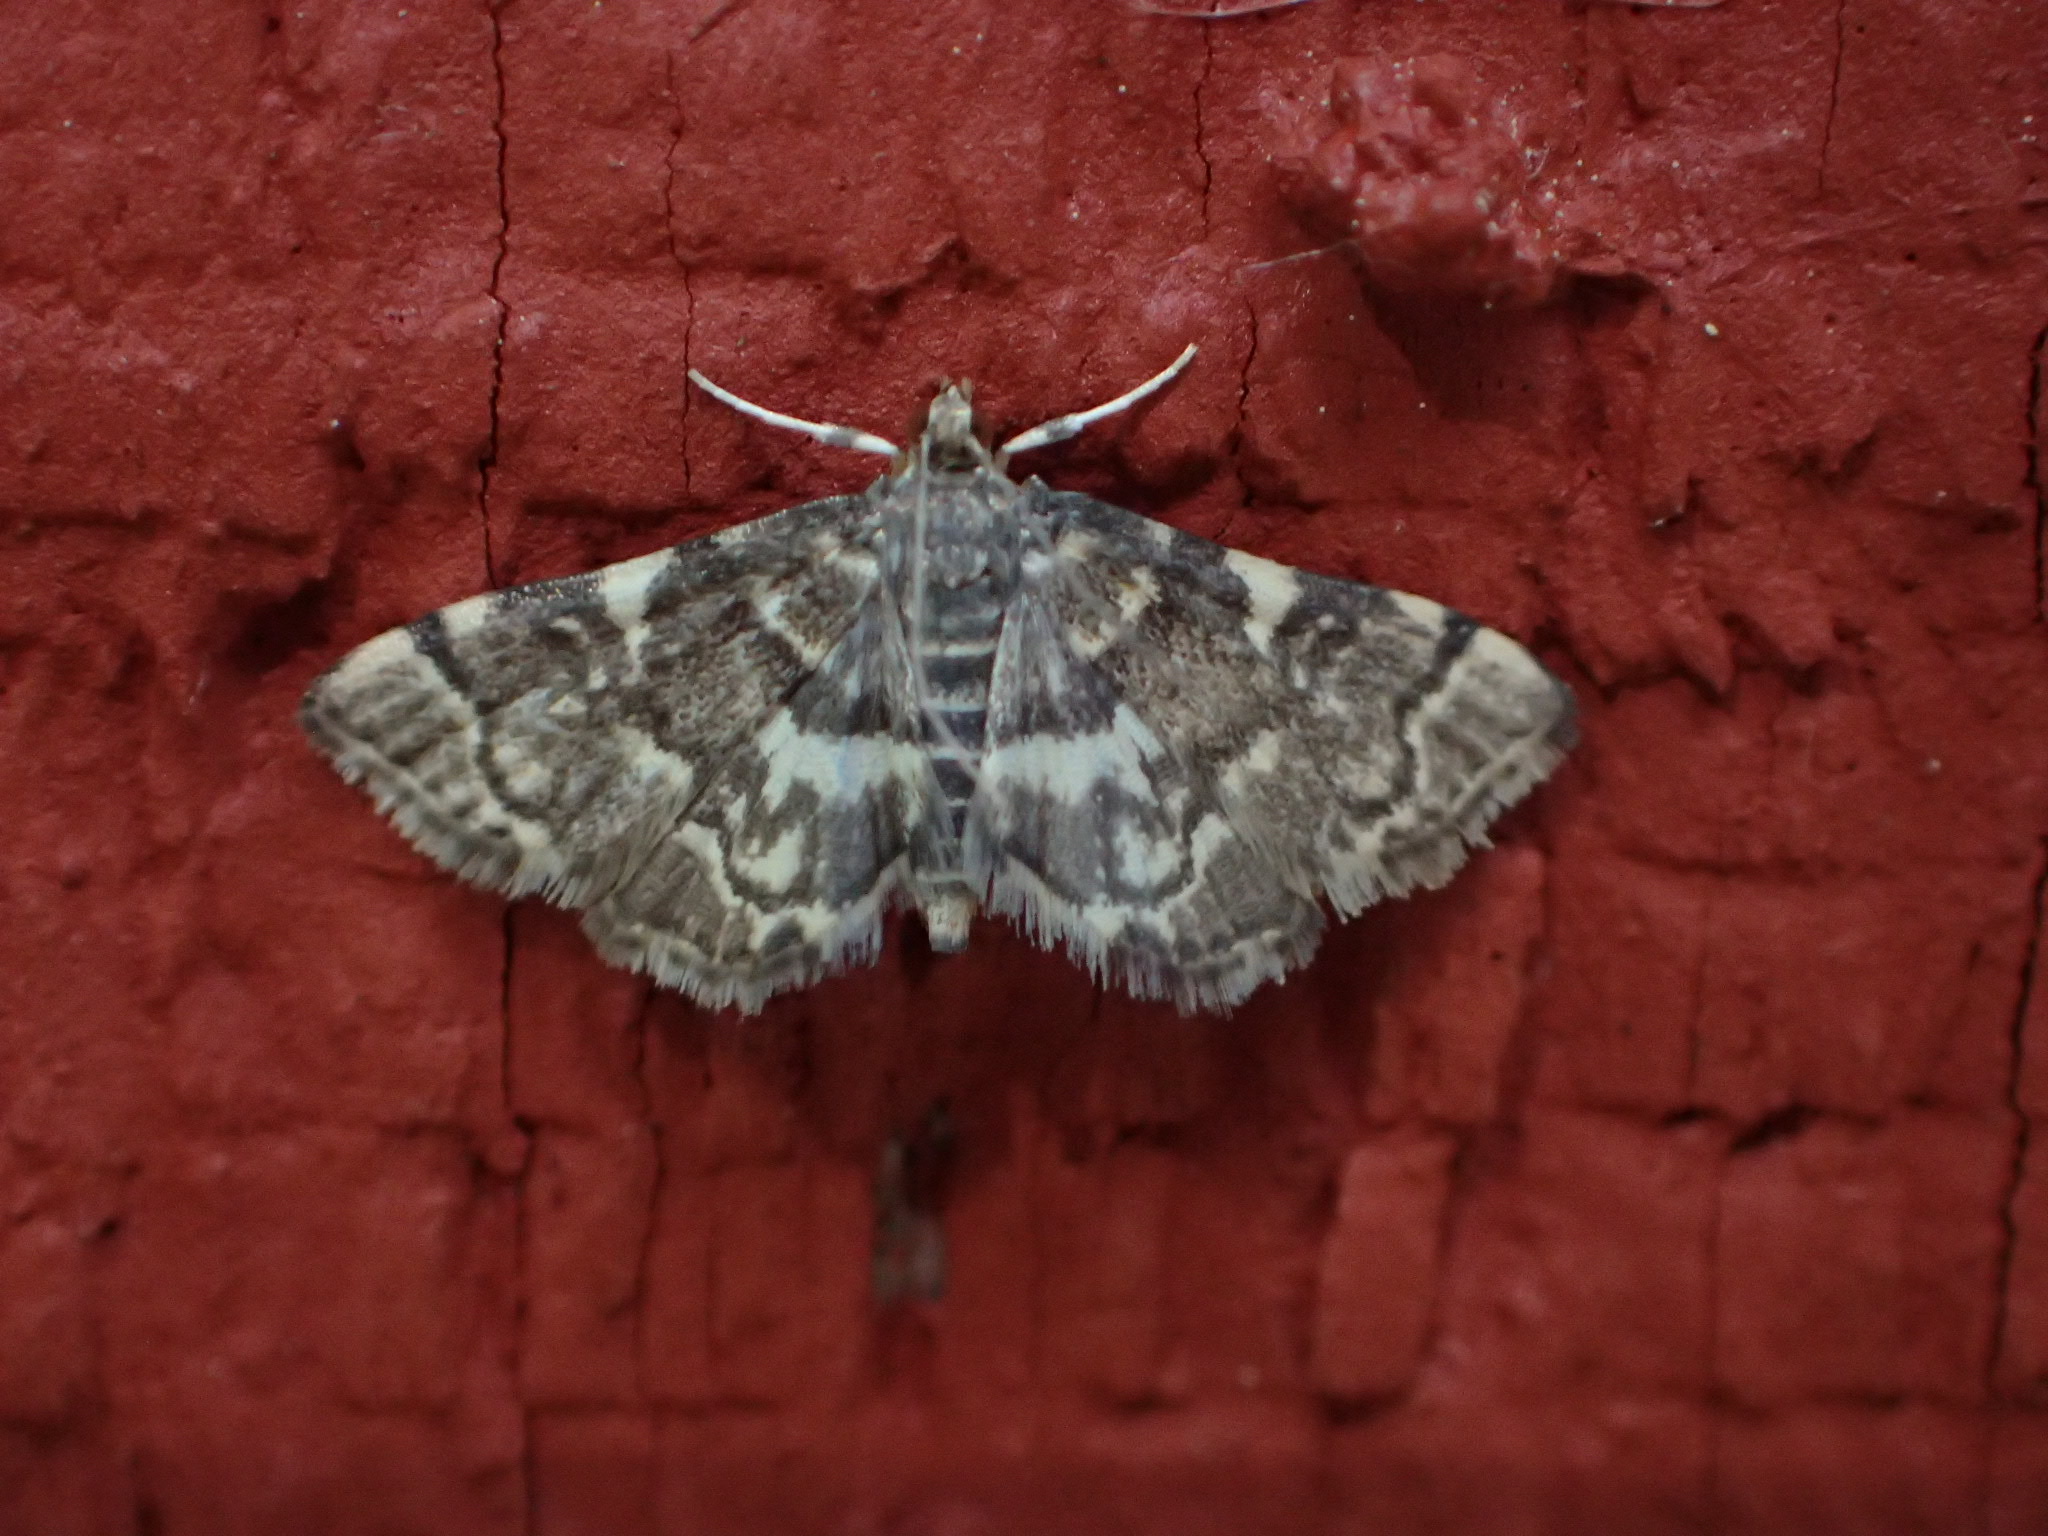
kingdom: Animalia
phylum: Arthropoda
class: Insecta
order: Lepidoptera
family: Crambidae
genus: Anageshna
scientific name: Anageshna primordialis
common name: Yellow-spotted webworm moth
